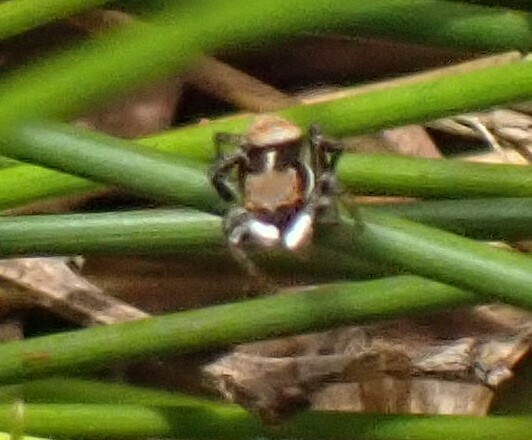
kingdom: Animalia
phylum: Arthropoda
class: Arachnida
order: Araneae
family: Salticidae
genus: Maratus
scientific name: Maratus pavonis
